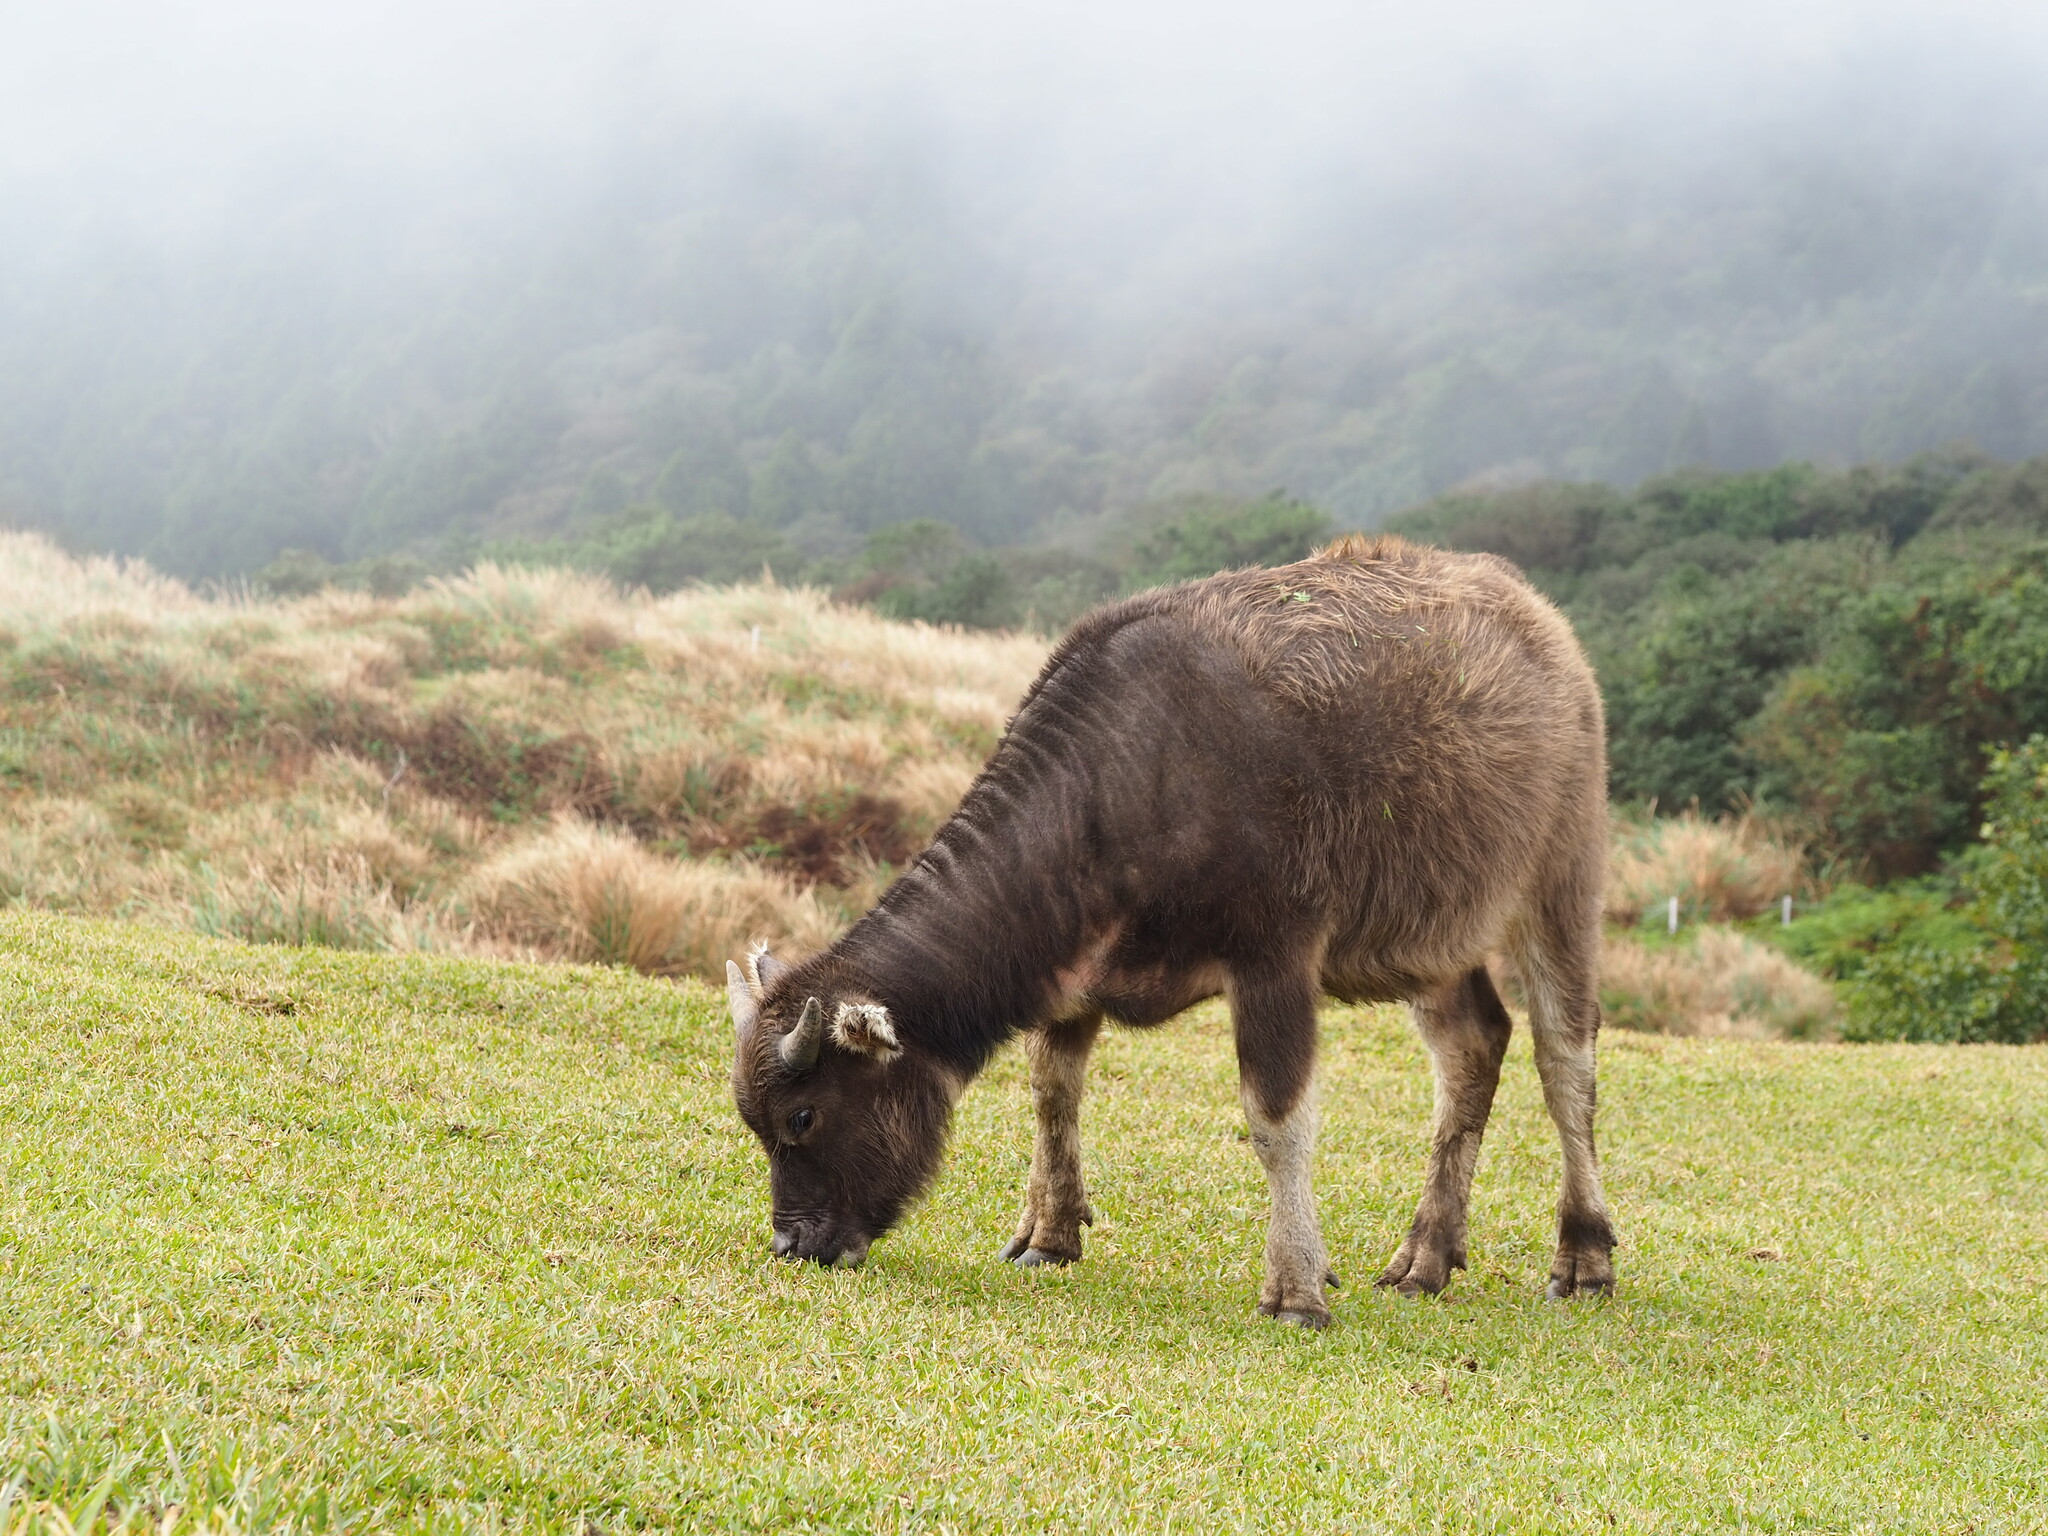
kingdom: Animalia
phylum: Chordata
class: Mammalia
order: Artiodactyla
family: Bovidae
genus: Bubalus
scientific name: Bubalus bubalis
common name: Water buffalo
